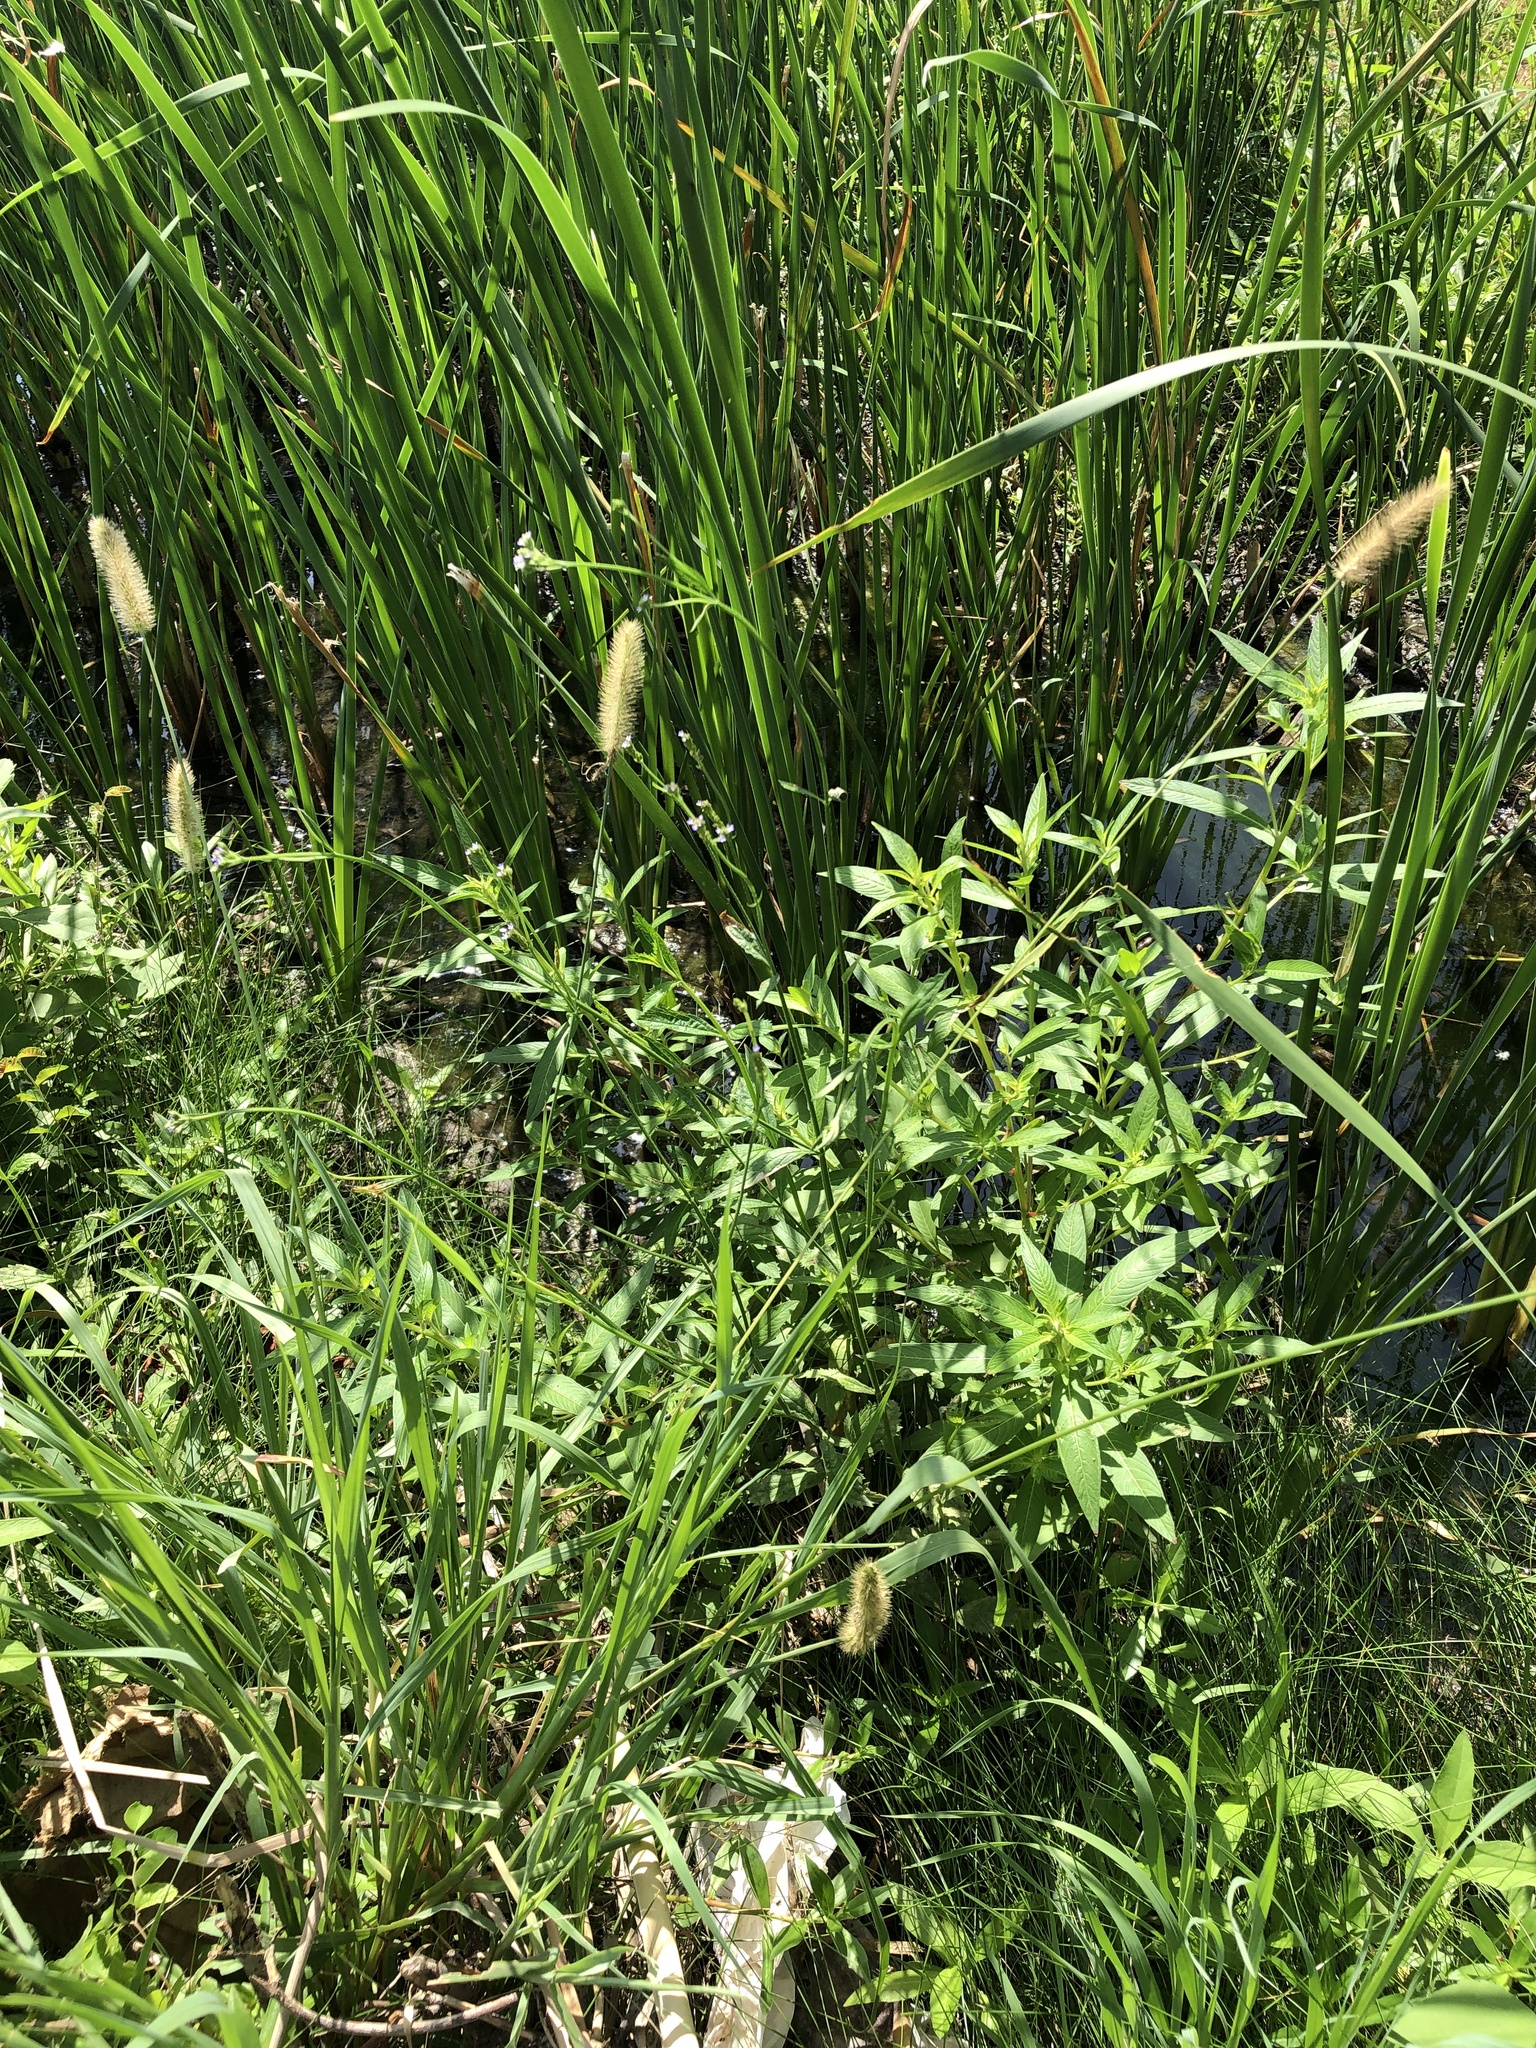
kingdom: Plantae
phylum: Tracheophyta
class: Magnoliopsida
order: Lamiales
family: Verbenaceae
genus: Verbena
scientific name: Verbena brasiliensis
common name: Brazilian vervain
